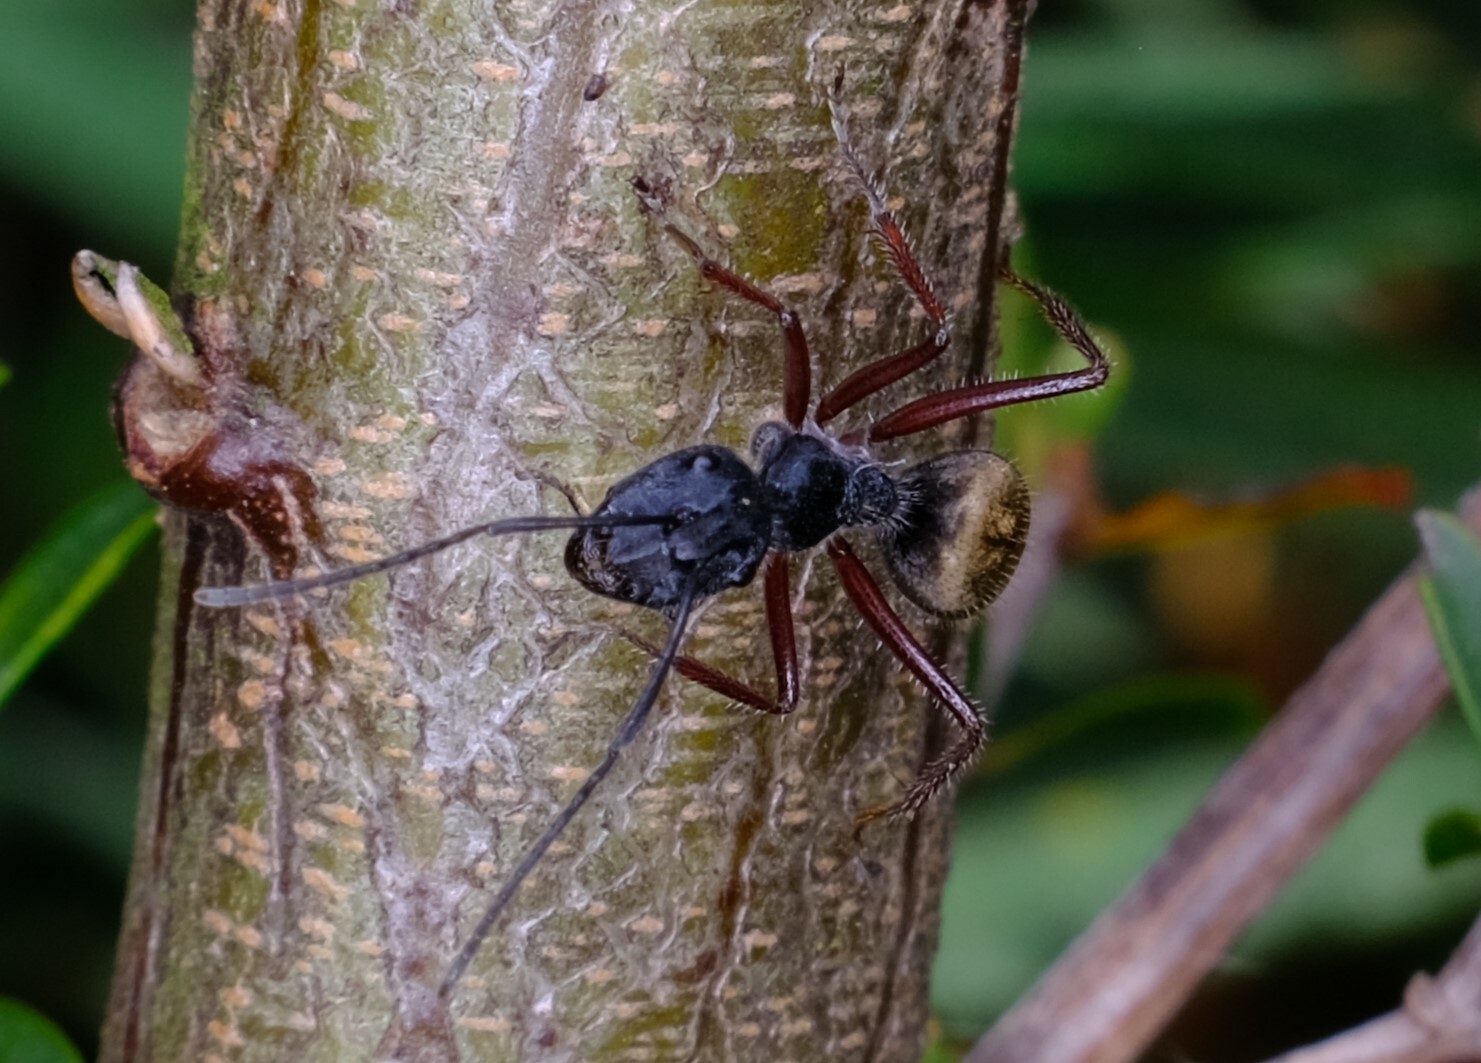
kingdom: Animalia
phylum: Arthropoda
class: Insecta
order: Hymenoptera
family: Formicidae
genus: Camponotus
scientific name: Camponotus suffusus
